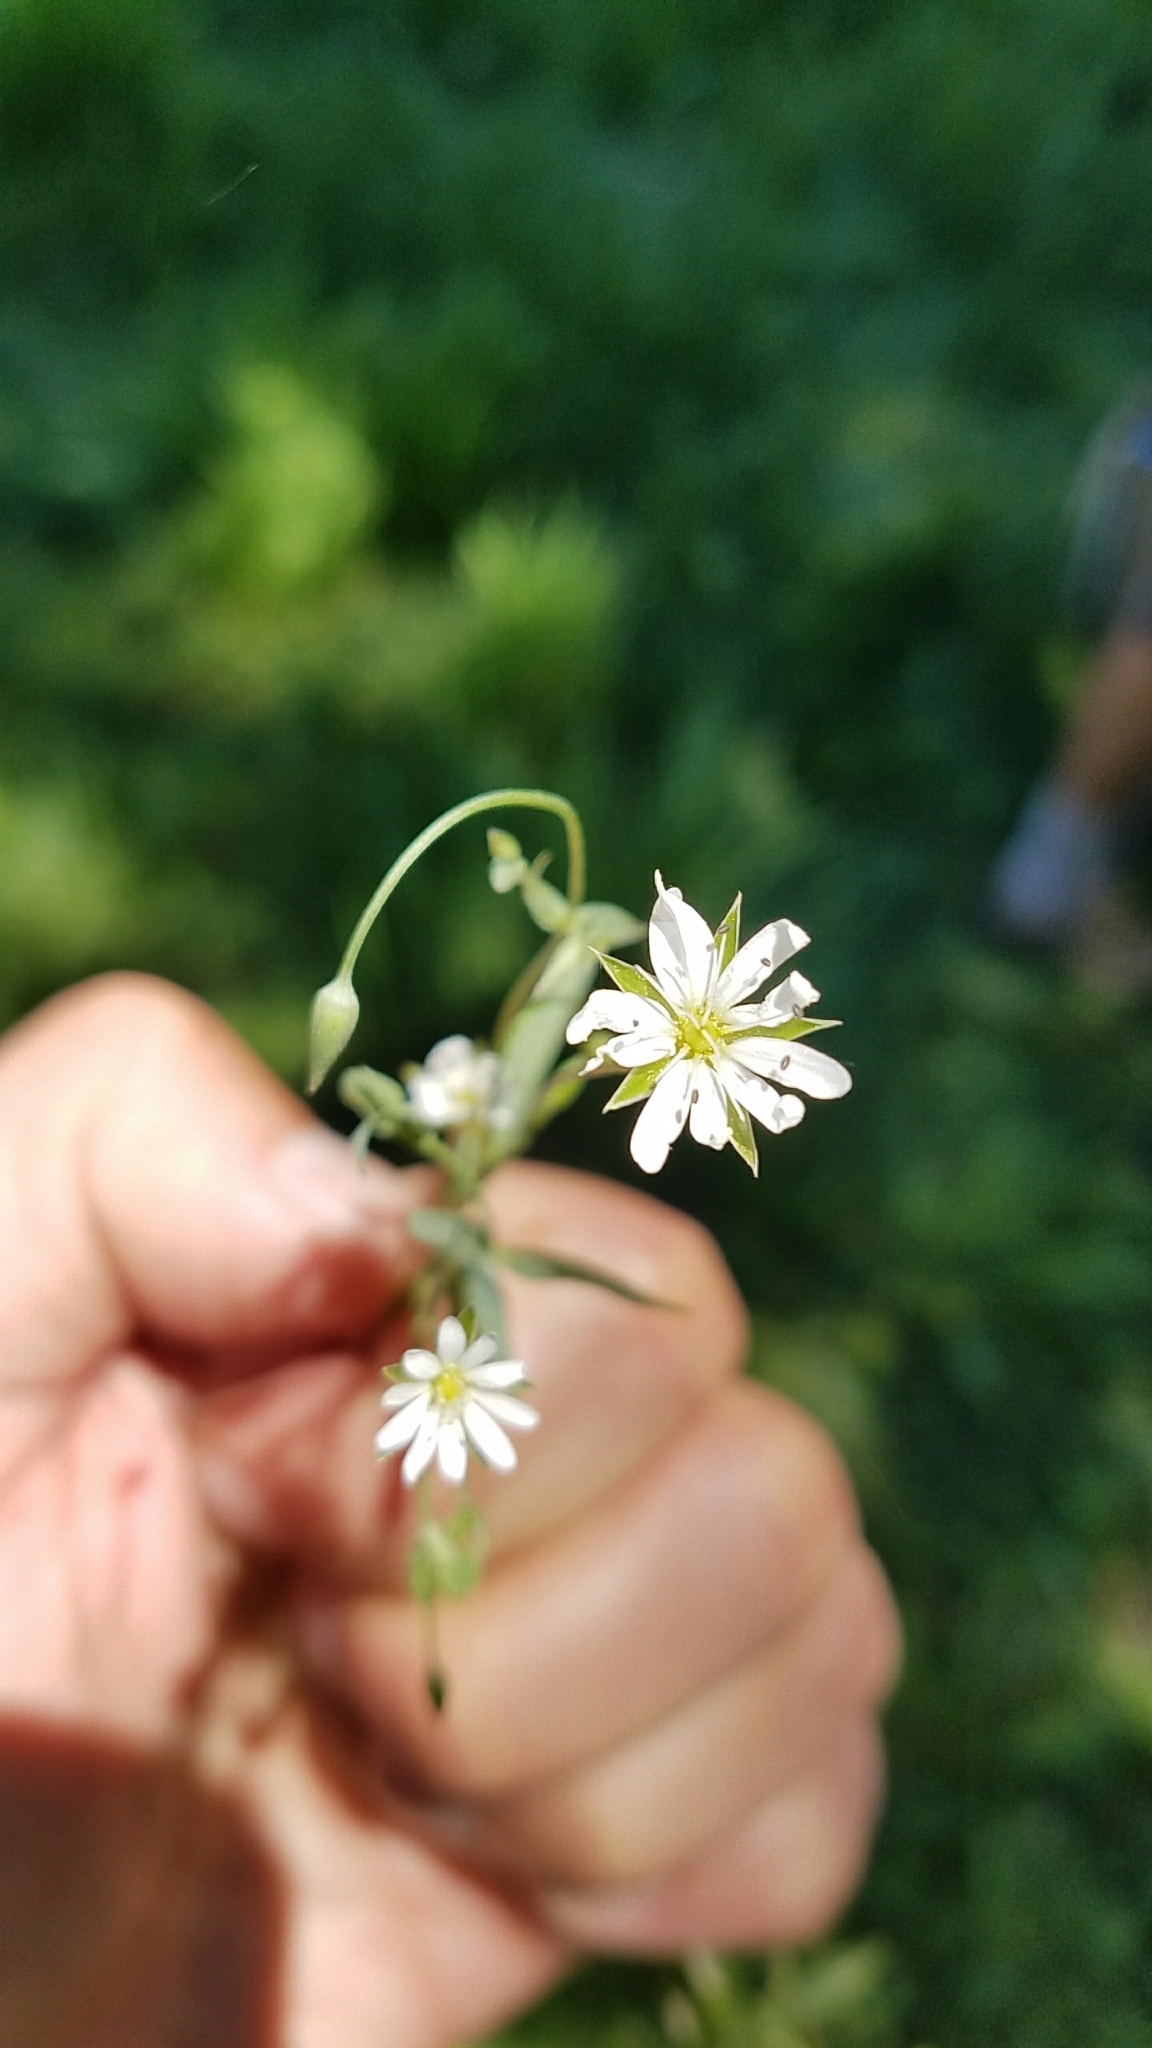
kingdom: Plantae
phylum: Tracheophyta
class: Magnoliopsida
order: Caryophyllales
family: Caryophyllaceae
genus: Stellaria
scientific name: Stellaria longipes
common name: Goldie's starwort
